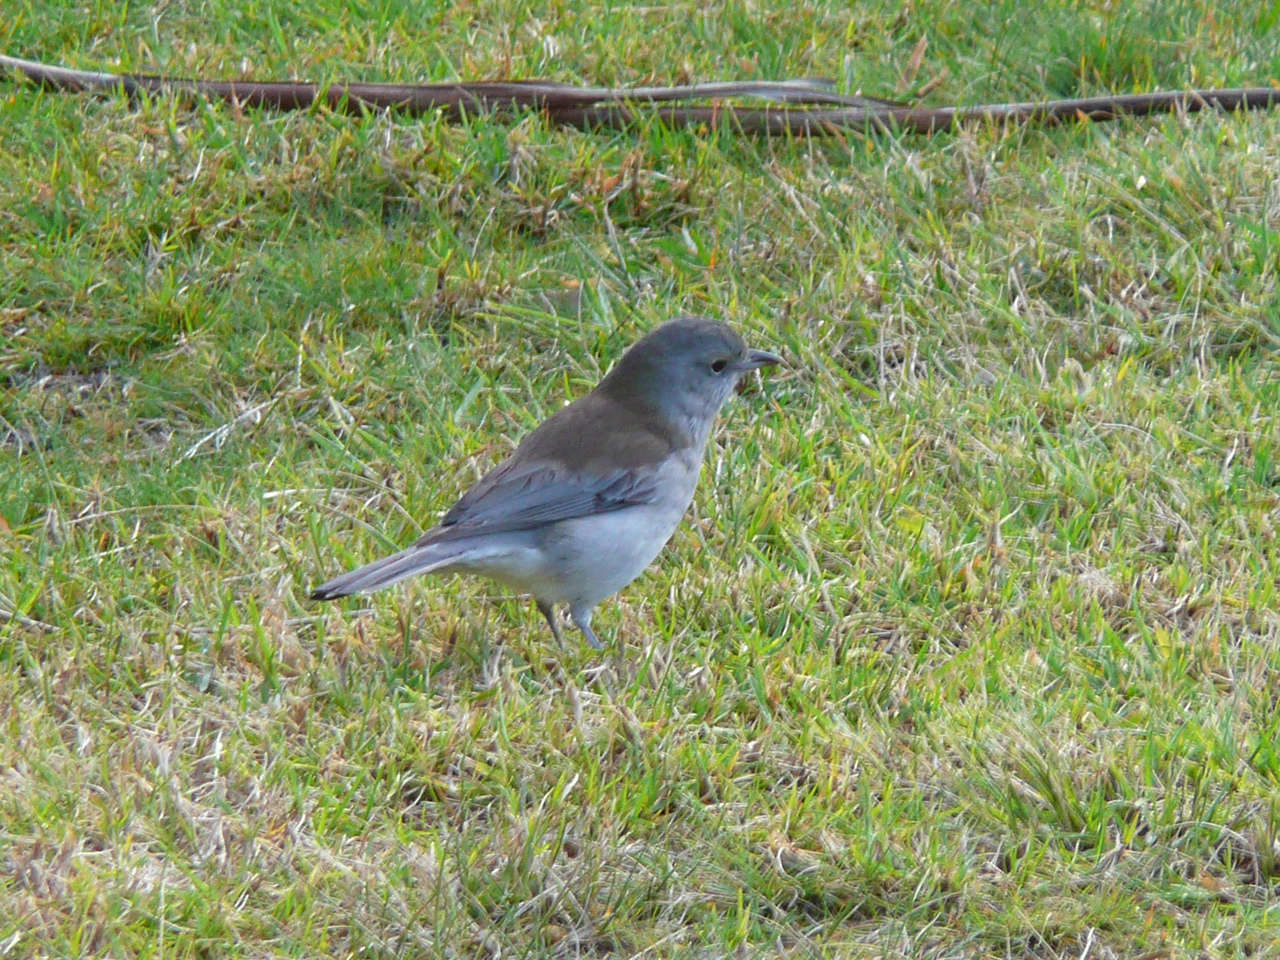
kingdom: Animalia
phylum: Chordata
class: Aves
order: Passeriformes
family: Pachycephalidae
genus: Colluricincla
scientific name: Colluricincla harmonica
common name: Grey shrikethrush
